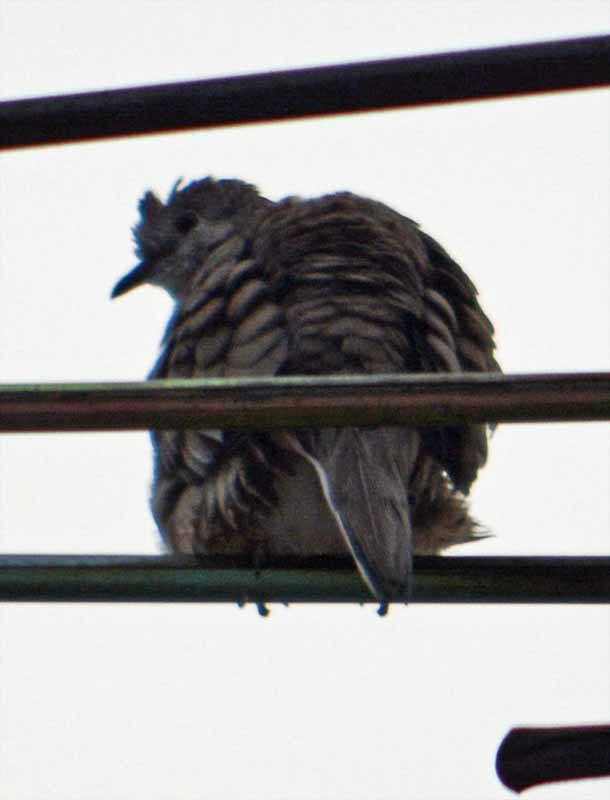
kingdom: Animalia
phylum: Chordata
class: Aves
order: Columbiformes
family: Columbidae
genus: Columbina
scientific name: Columbina inca
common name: Inca dove
